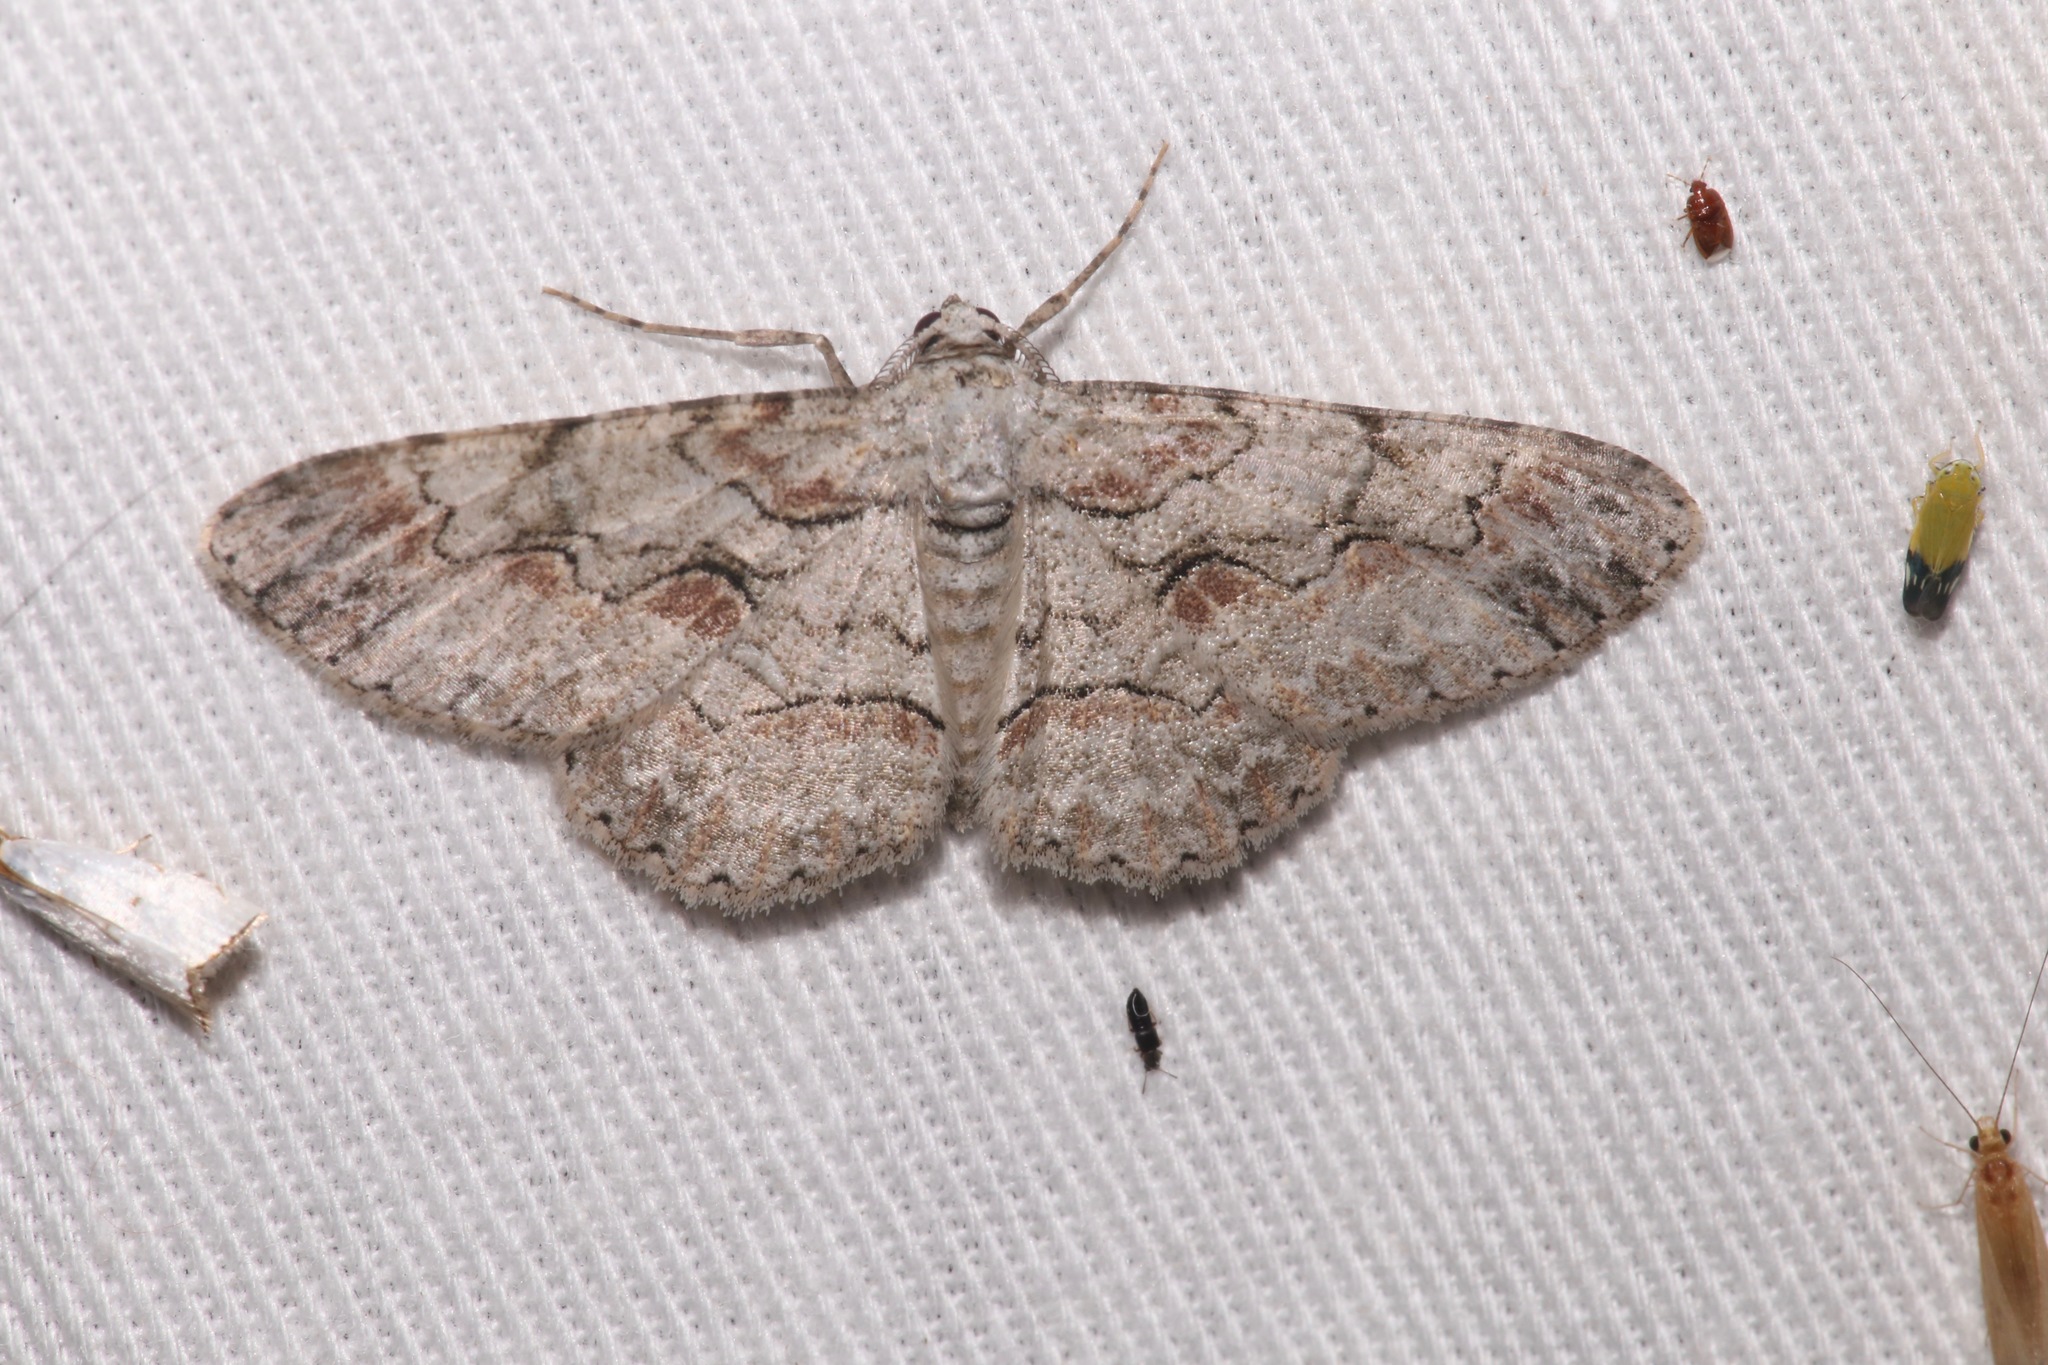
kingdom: Animalia
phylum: Arthropoda
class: Insecta
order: Lepidoptera
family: Geometridae
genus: Iridopsis
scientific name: Iridopsis defectaria
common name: Brown-shaded gray
